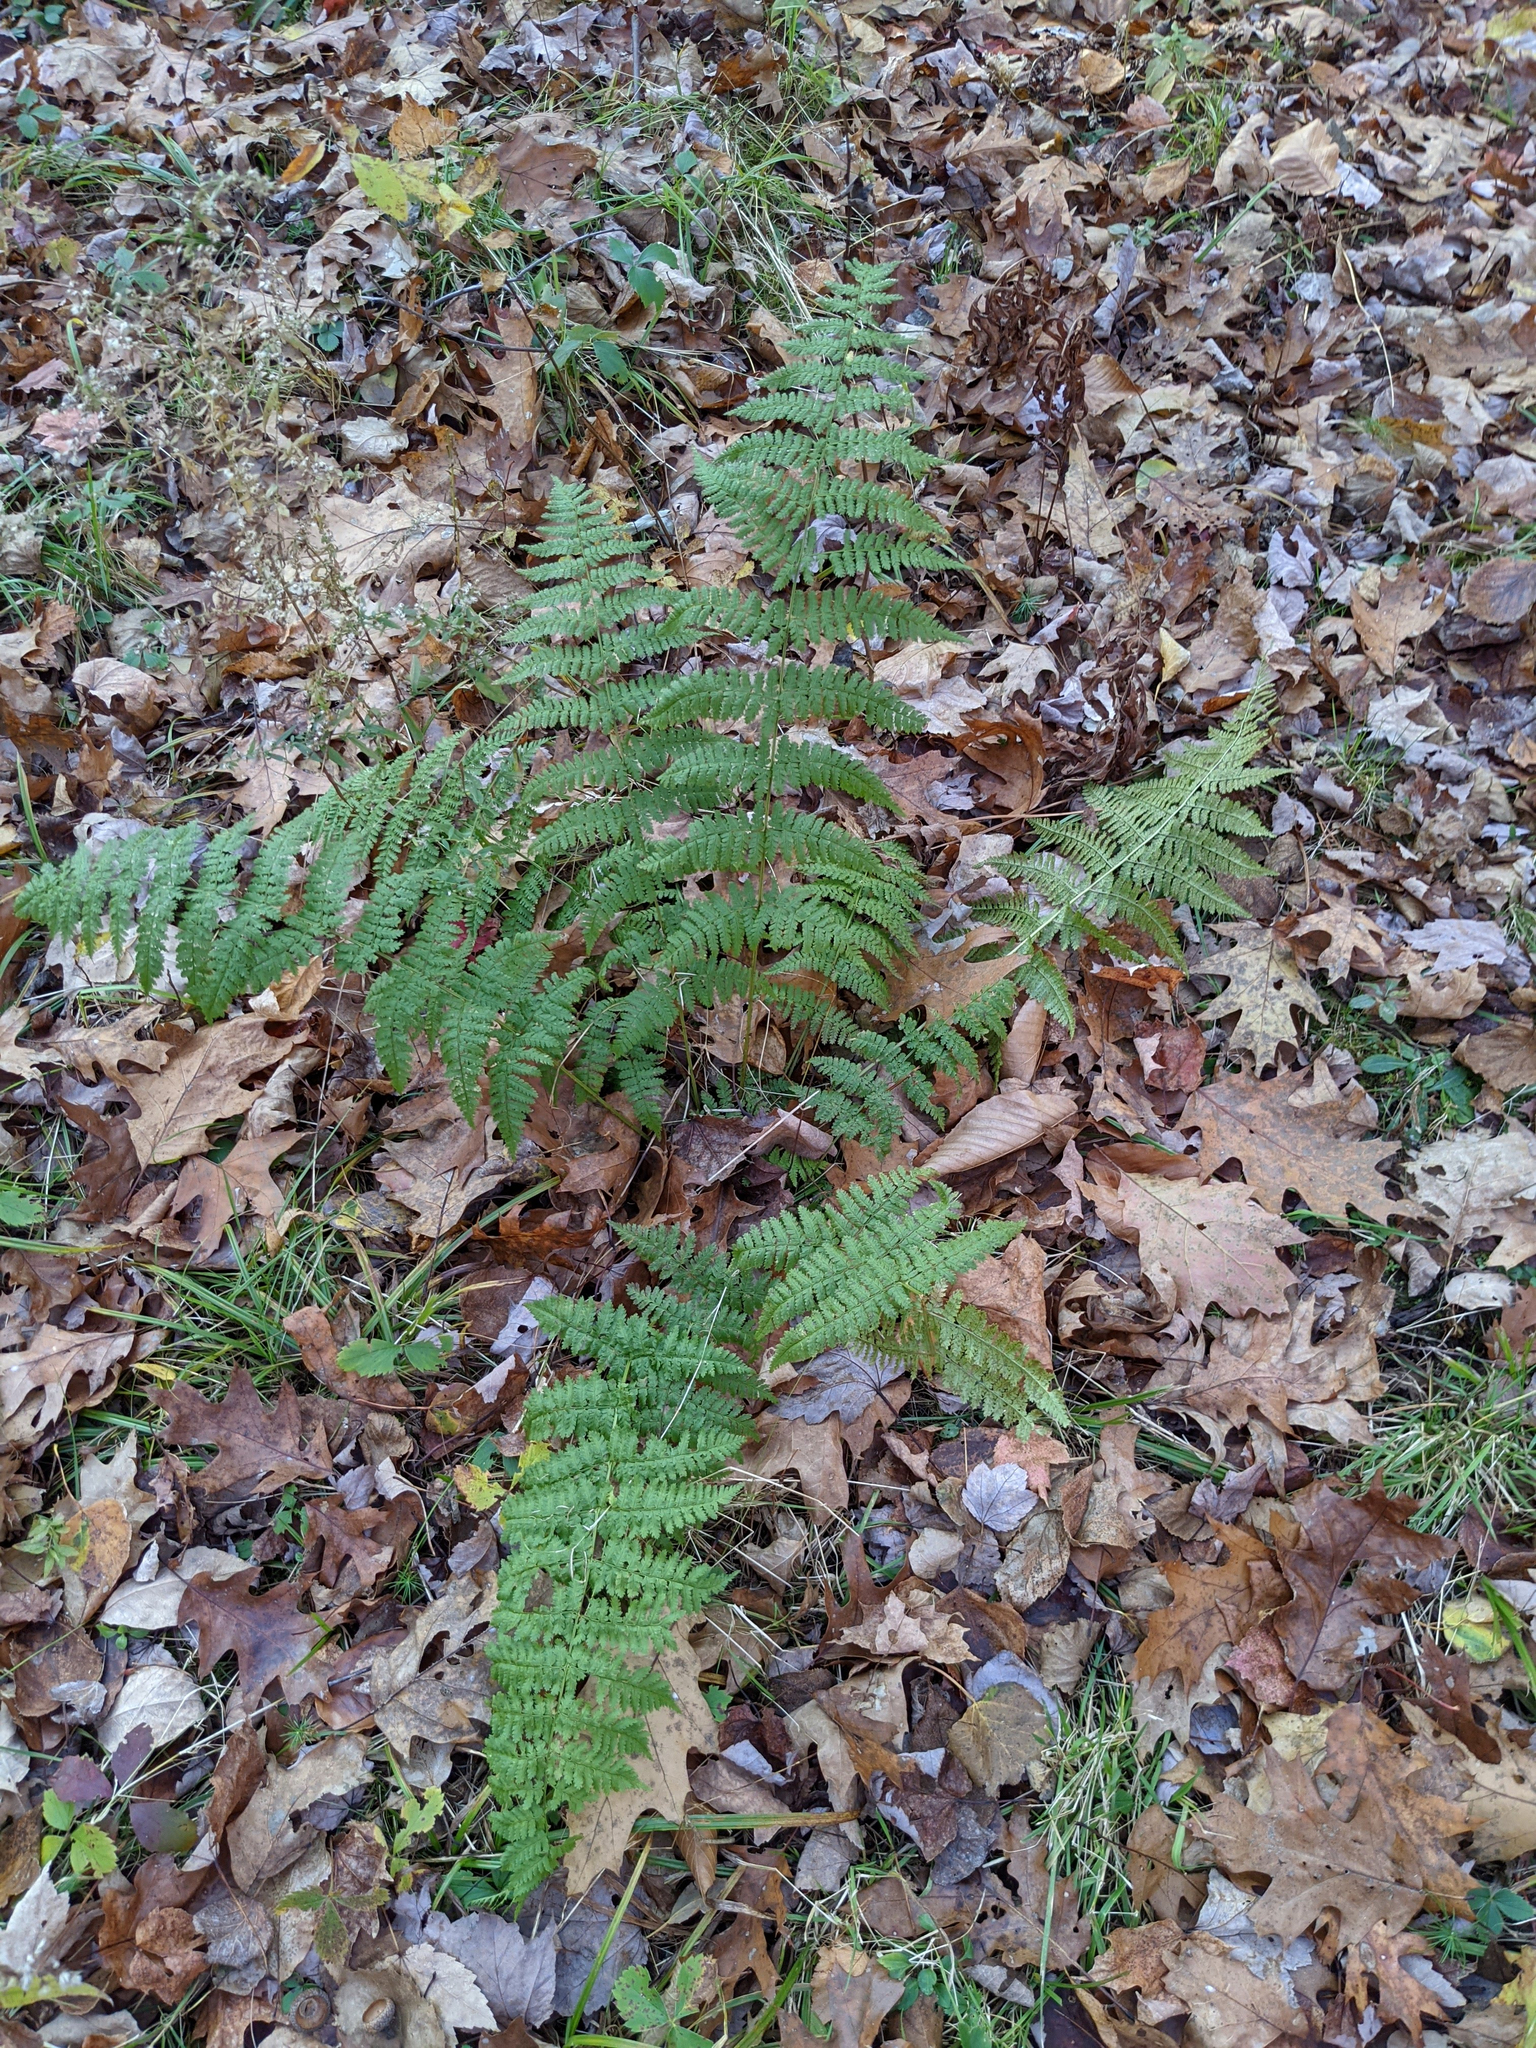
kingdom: Plantae
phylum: Tracheophyta
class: Polypodiopsida
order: Polypodiales
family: Dryopteridaceae
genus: Dryopteris
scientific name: Dryopteris intermedia
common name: Evergreen wood fern
